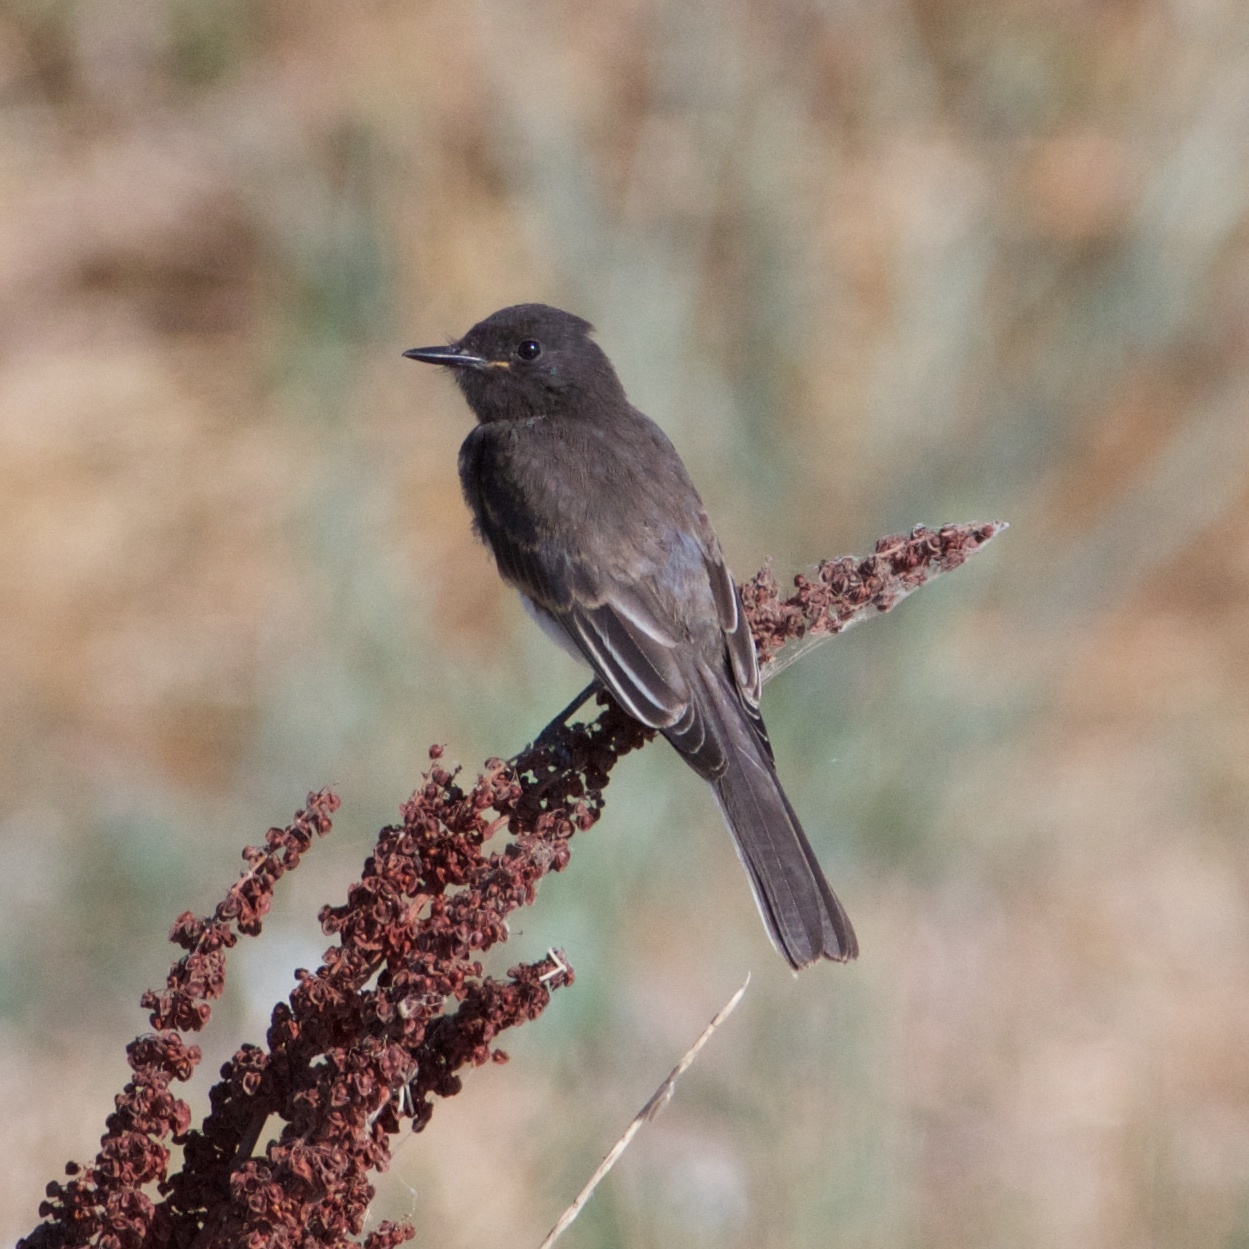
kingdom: Animalia
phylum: Chordata
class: Aves
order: Passeriformes
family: Tyrannidae
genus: Sayornis
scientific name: Sayornis nigricans
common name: Black phoebe
